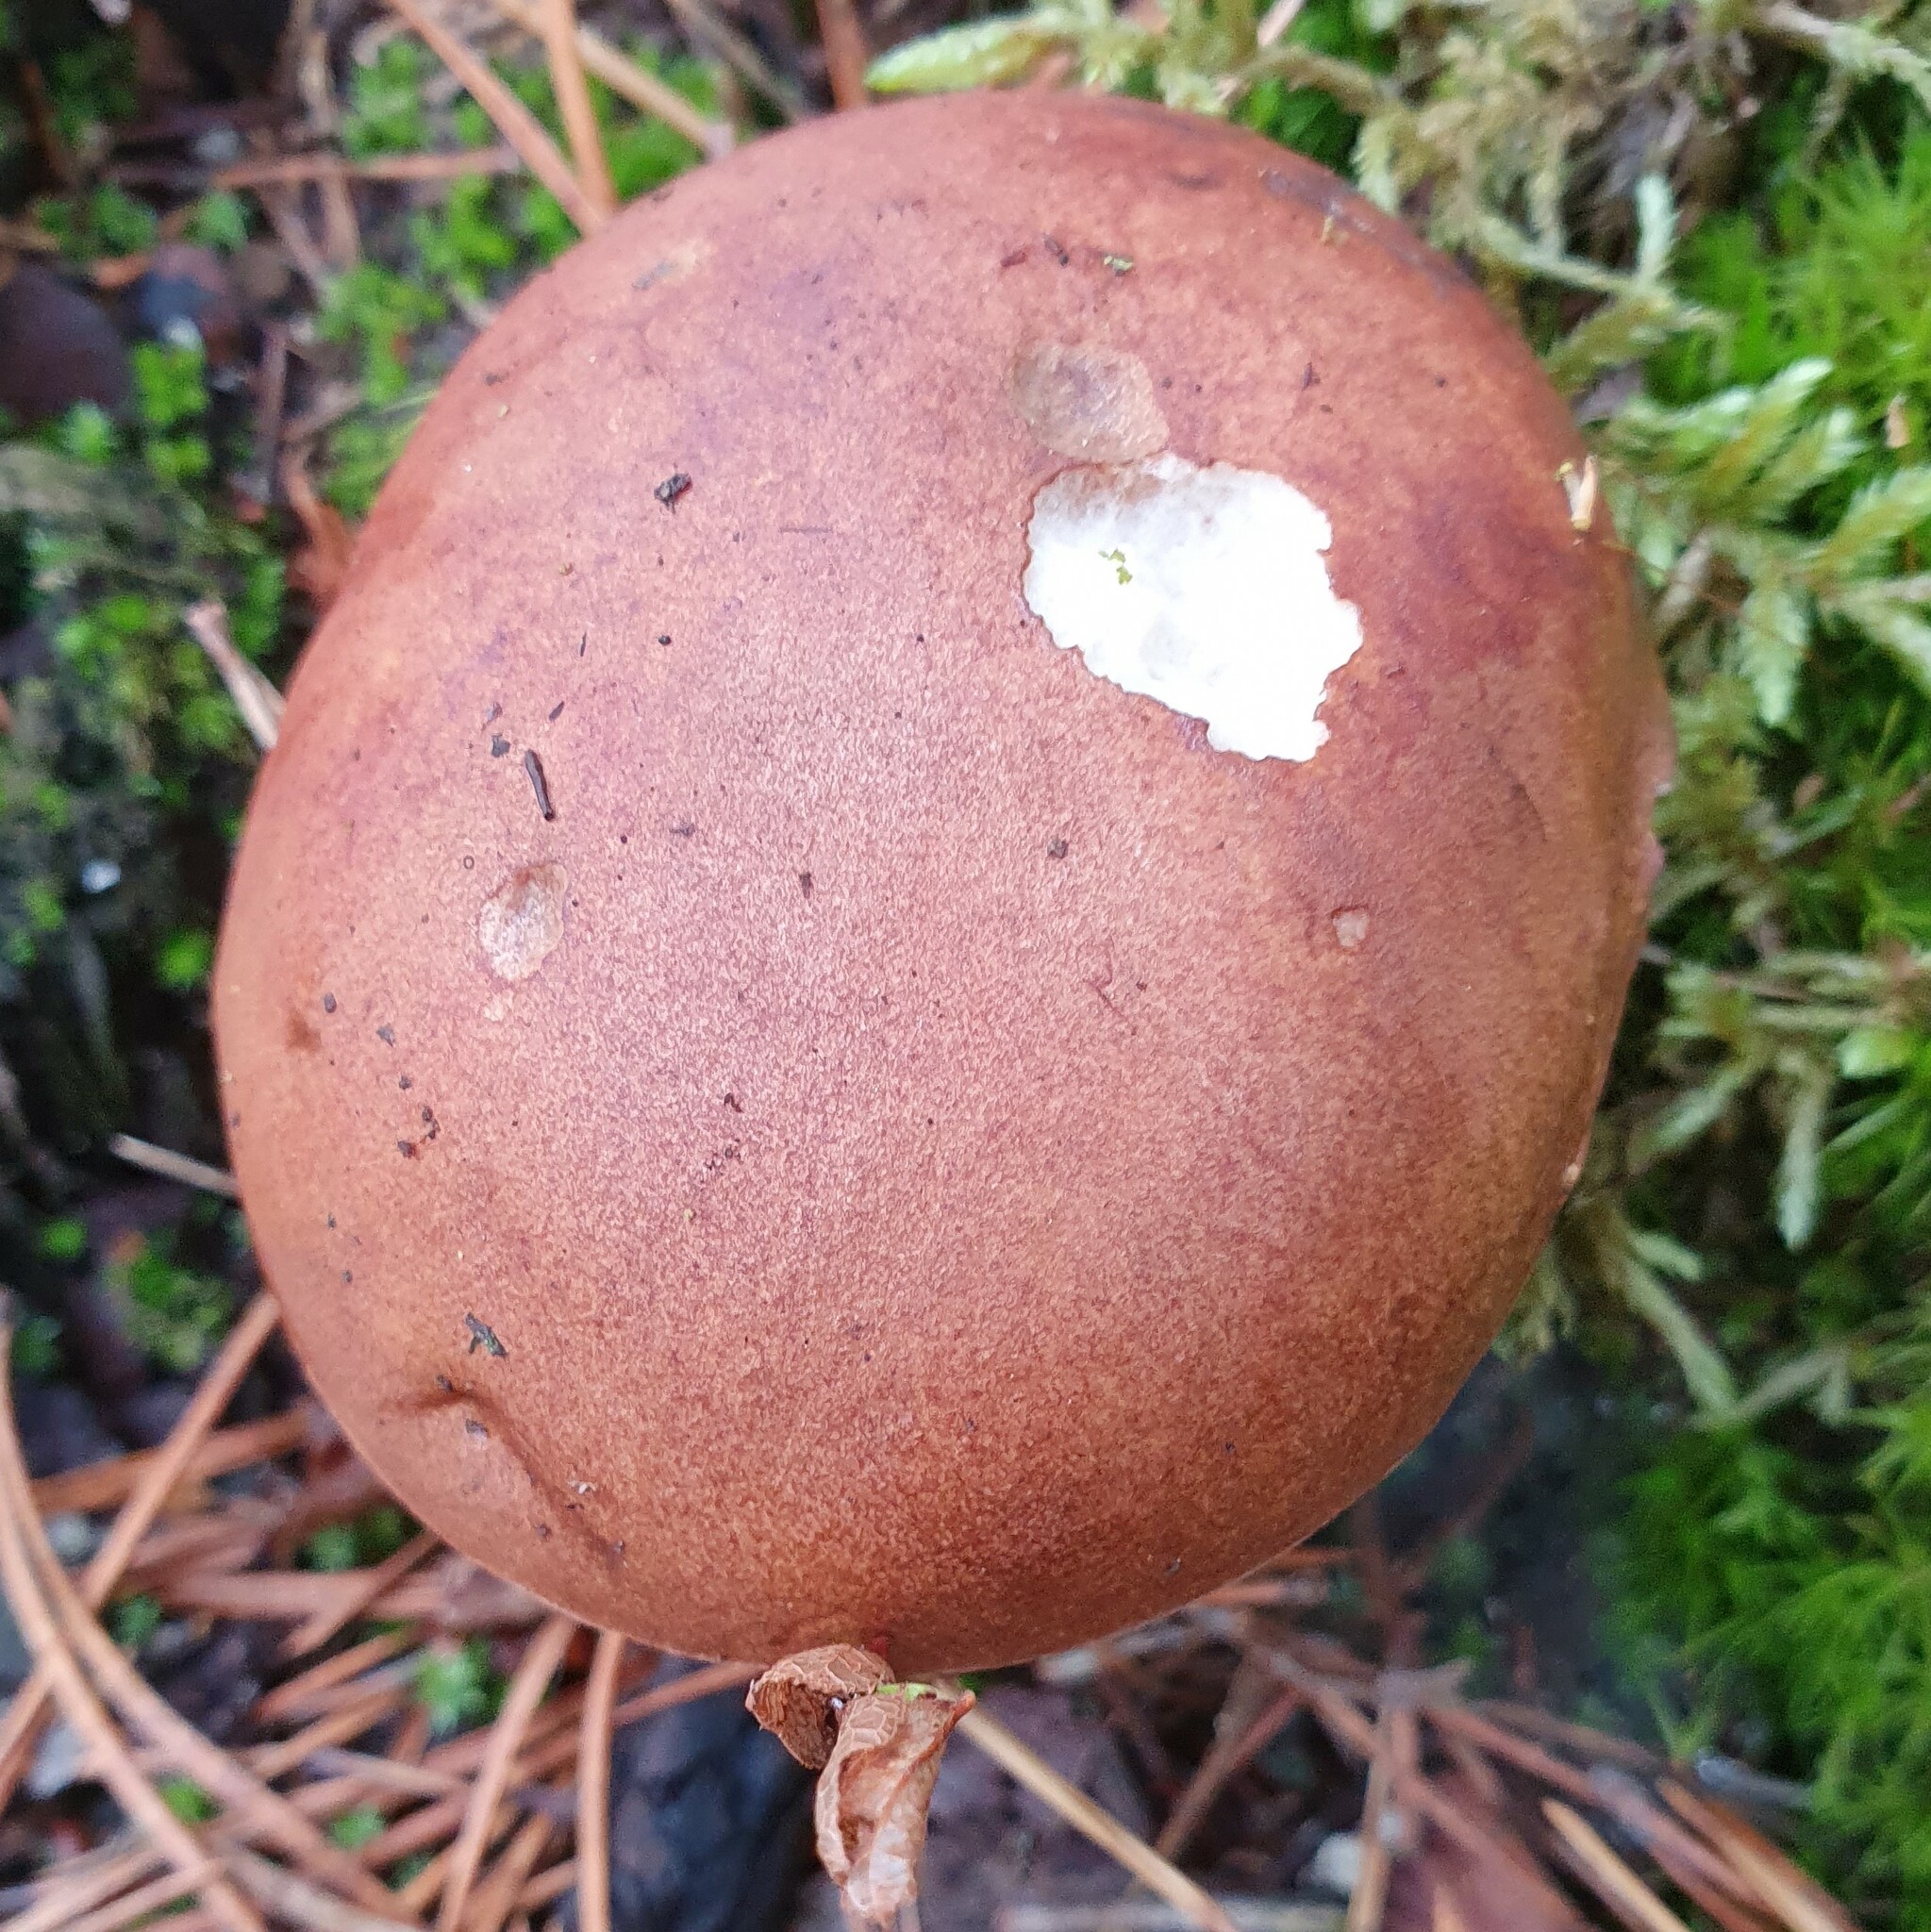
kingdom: Fungi
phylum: Basidiomycota
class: Agaricomycetes
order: Boletales
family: Boletaceae
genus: Imleria
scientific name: Imleria badia
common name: Bay bolete
